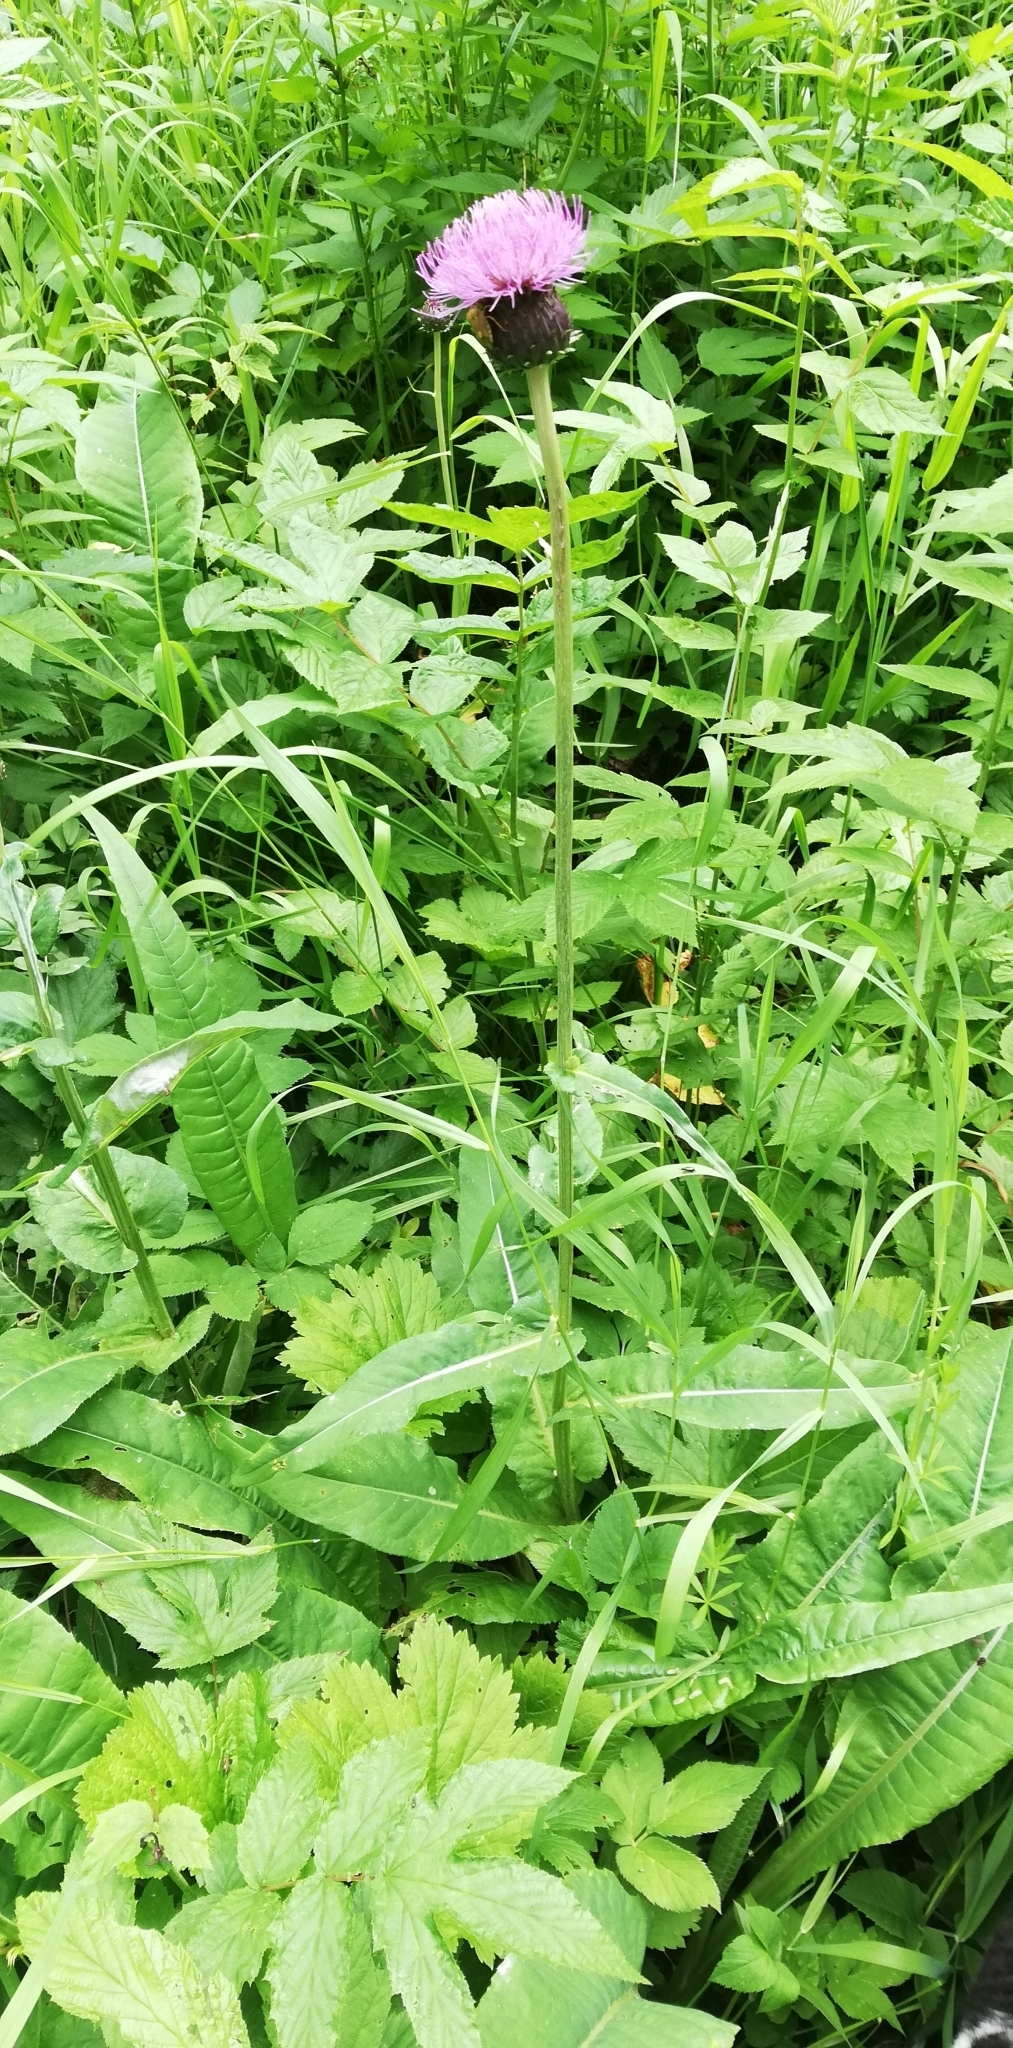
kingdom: Plantae
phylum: Tracheophyta
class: Magnoliopsida
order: Asterales
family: Asteraceae
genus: Cirsium
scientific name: Cirsium heterophyllum
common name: Melancholy thistle
